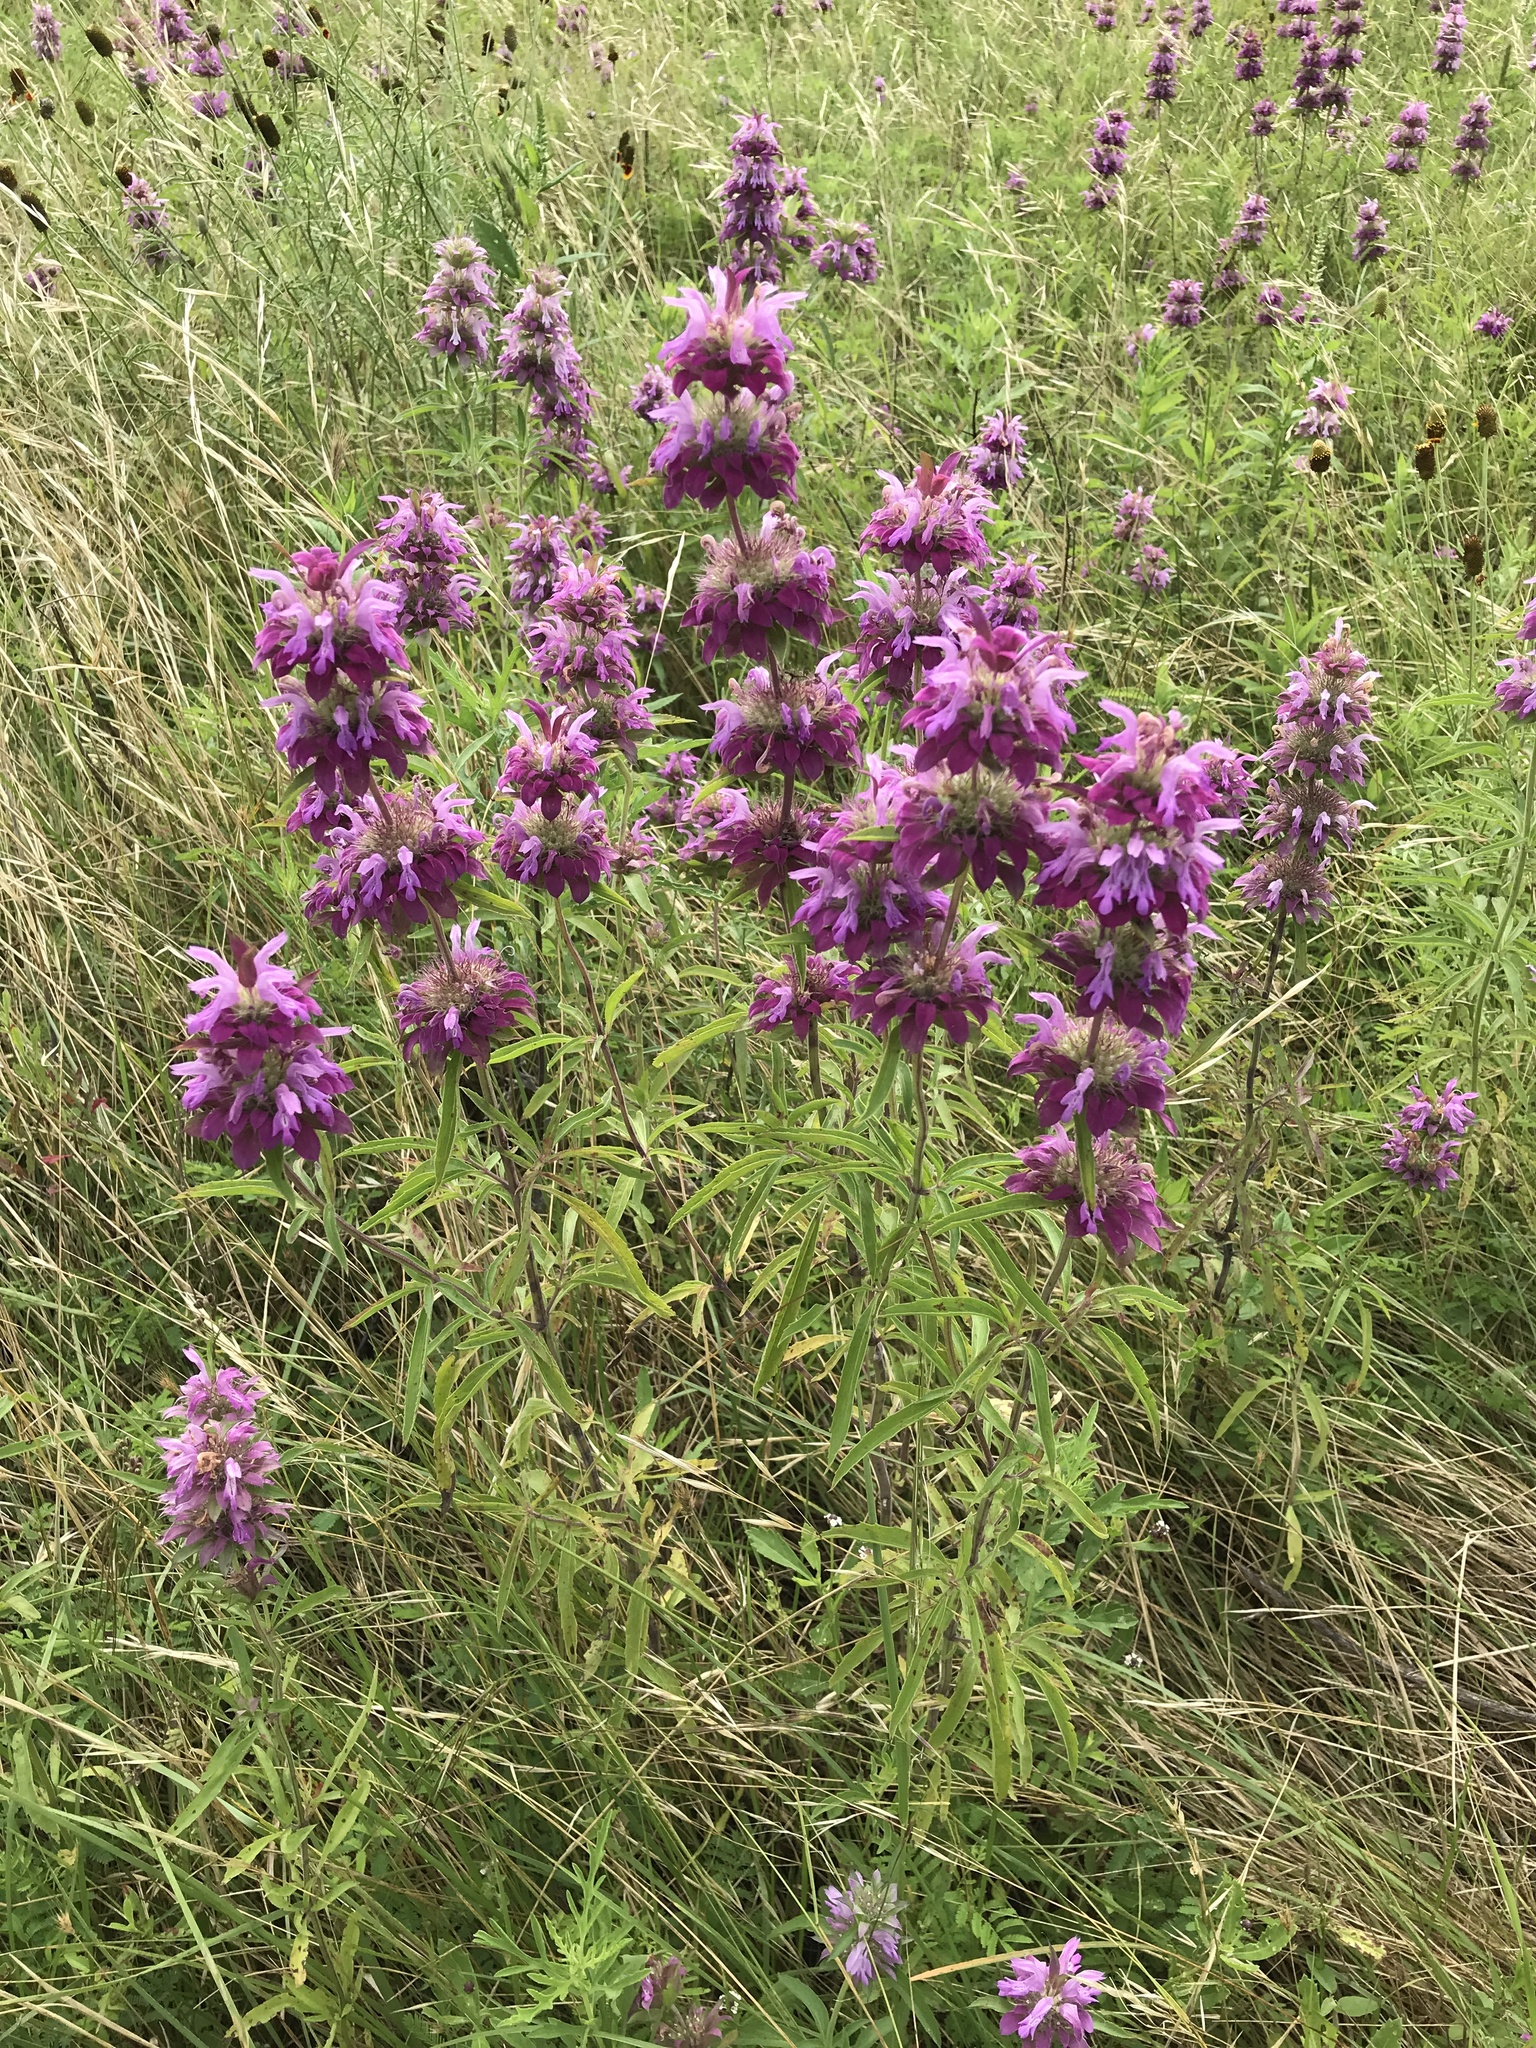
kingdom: Plantae
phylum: Tracheophyta
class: Magnoliopsida
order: Lamiales
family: Lamiaceae
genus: Monarda
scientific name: Monarda citriodora
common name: Lemon beebalm
